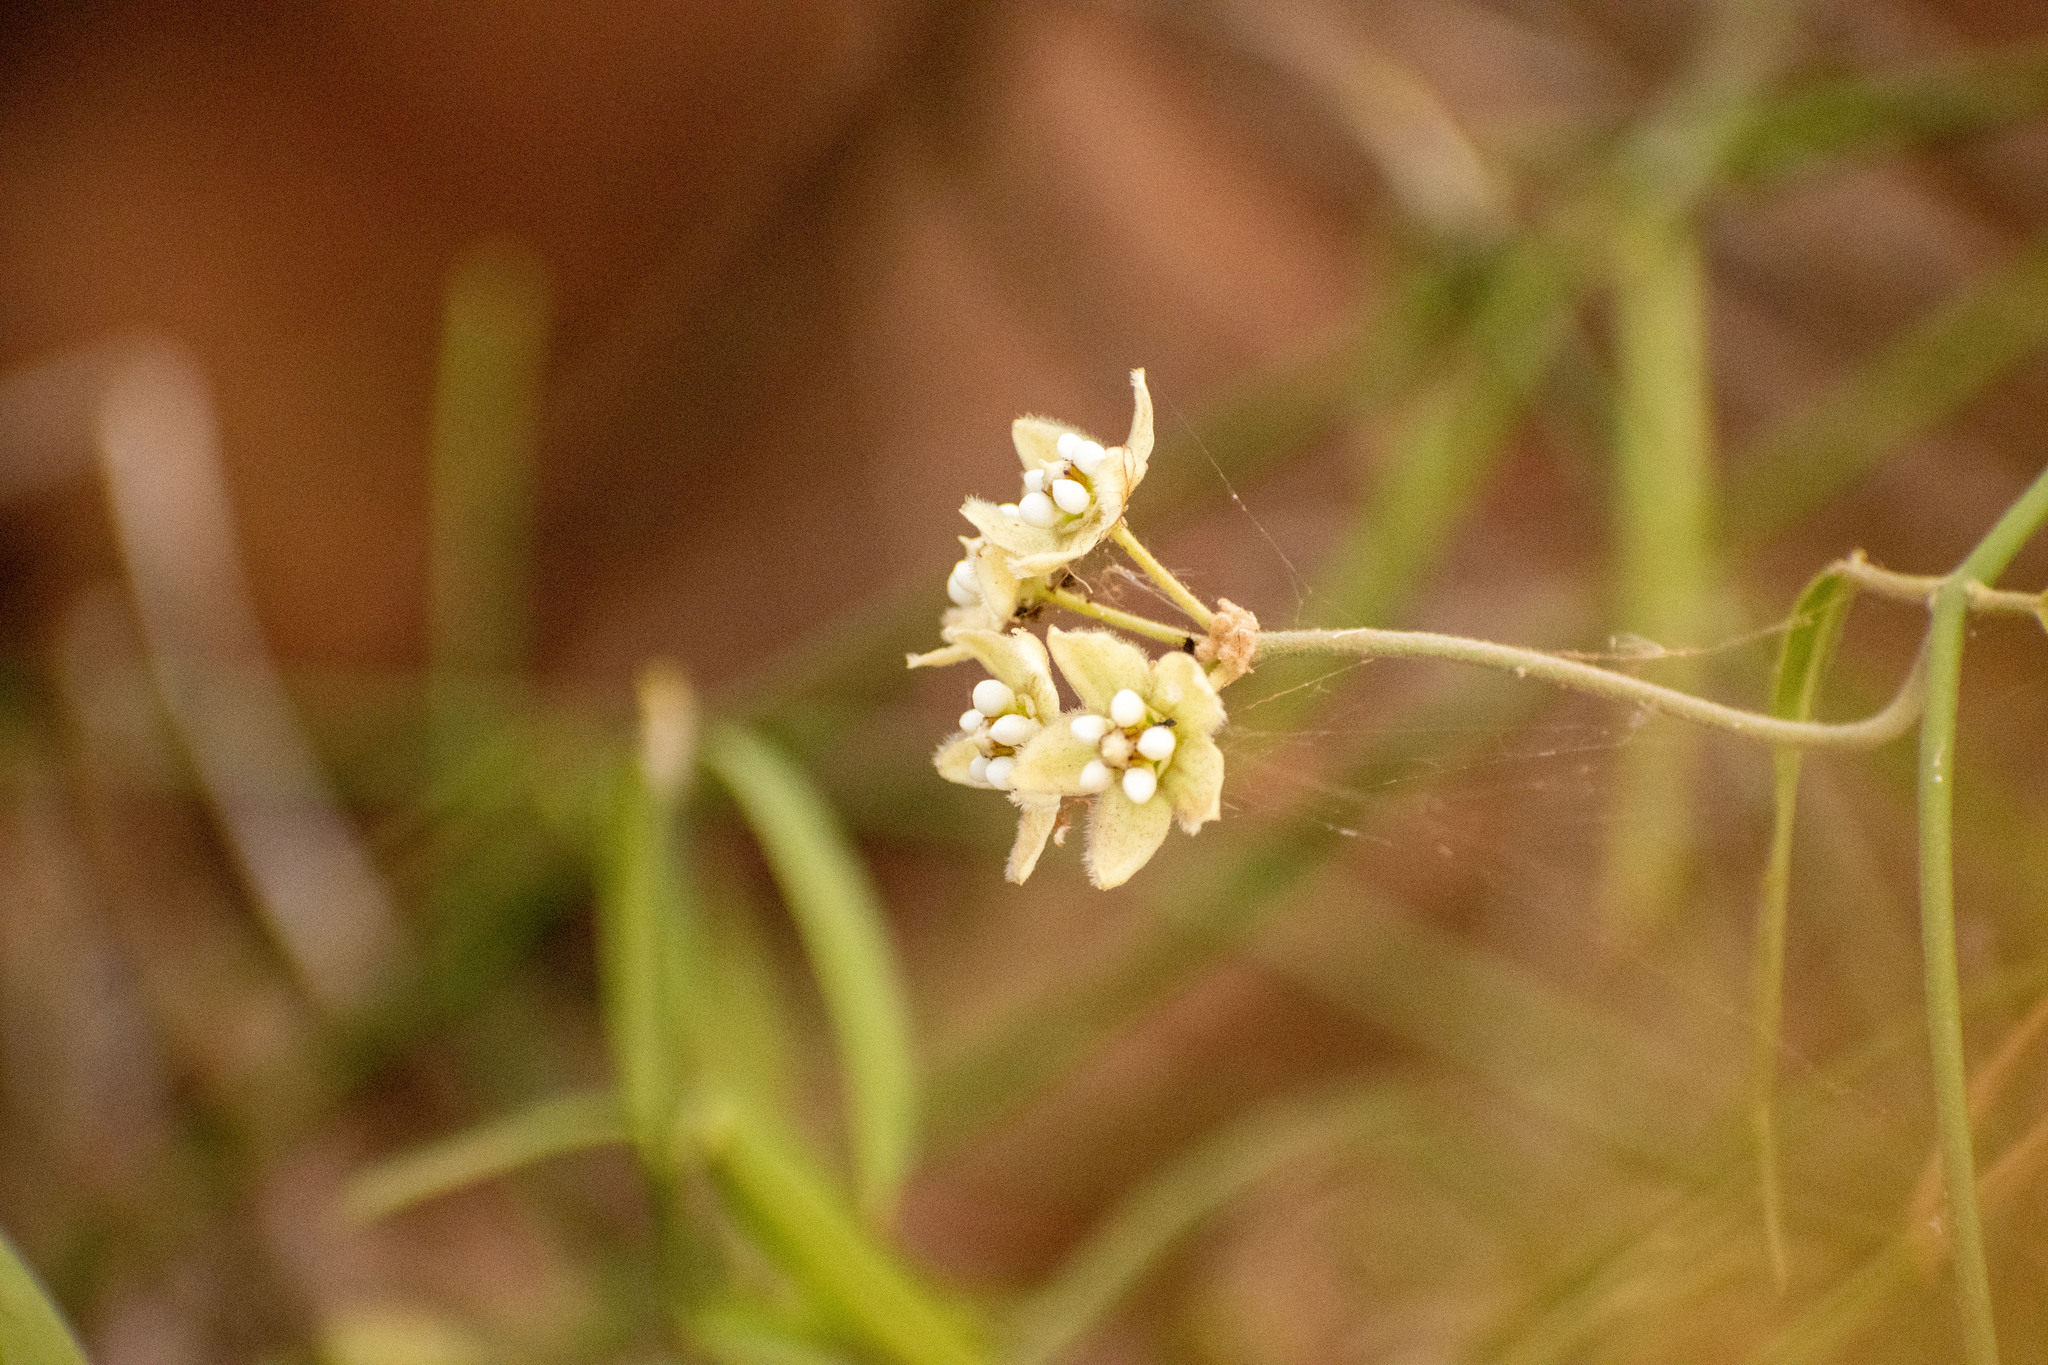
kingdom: Plantae
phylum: Tracheophyta
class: Magnoliopsida
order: Gentianales
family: Apocynaceae
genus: Funastrum
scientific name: Funastrum clausum
